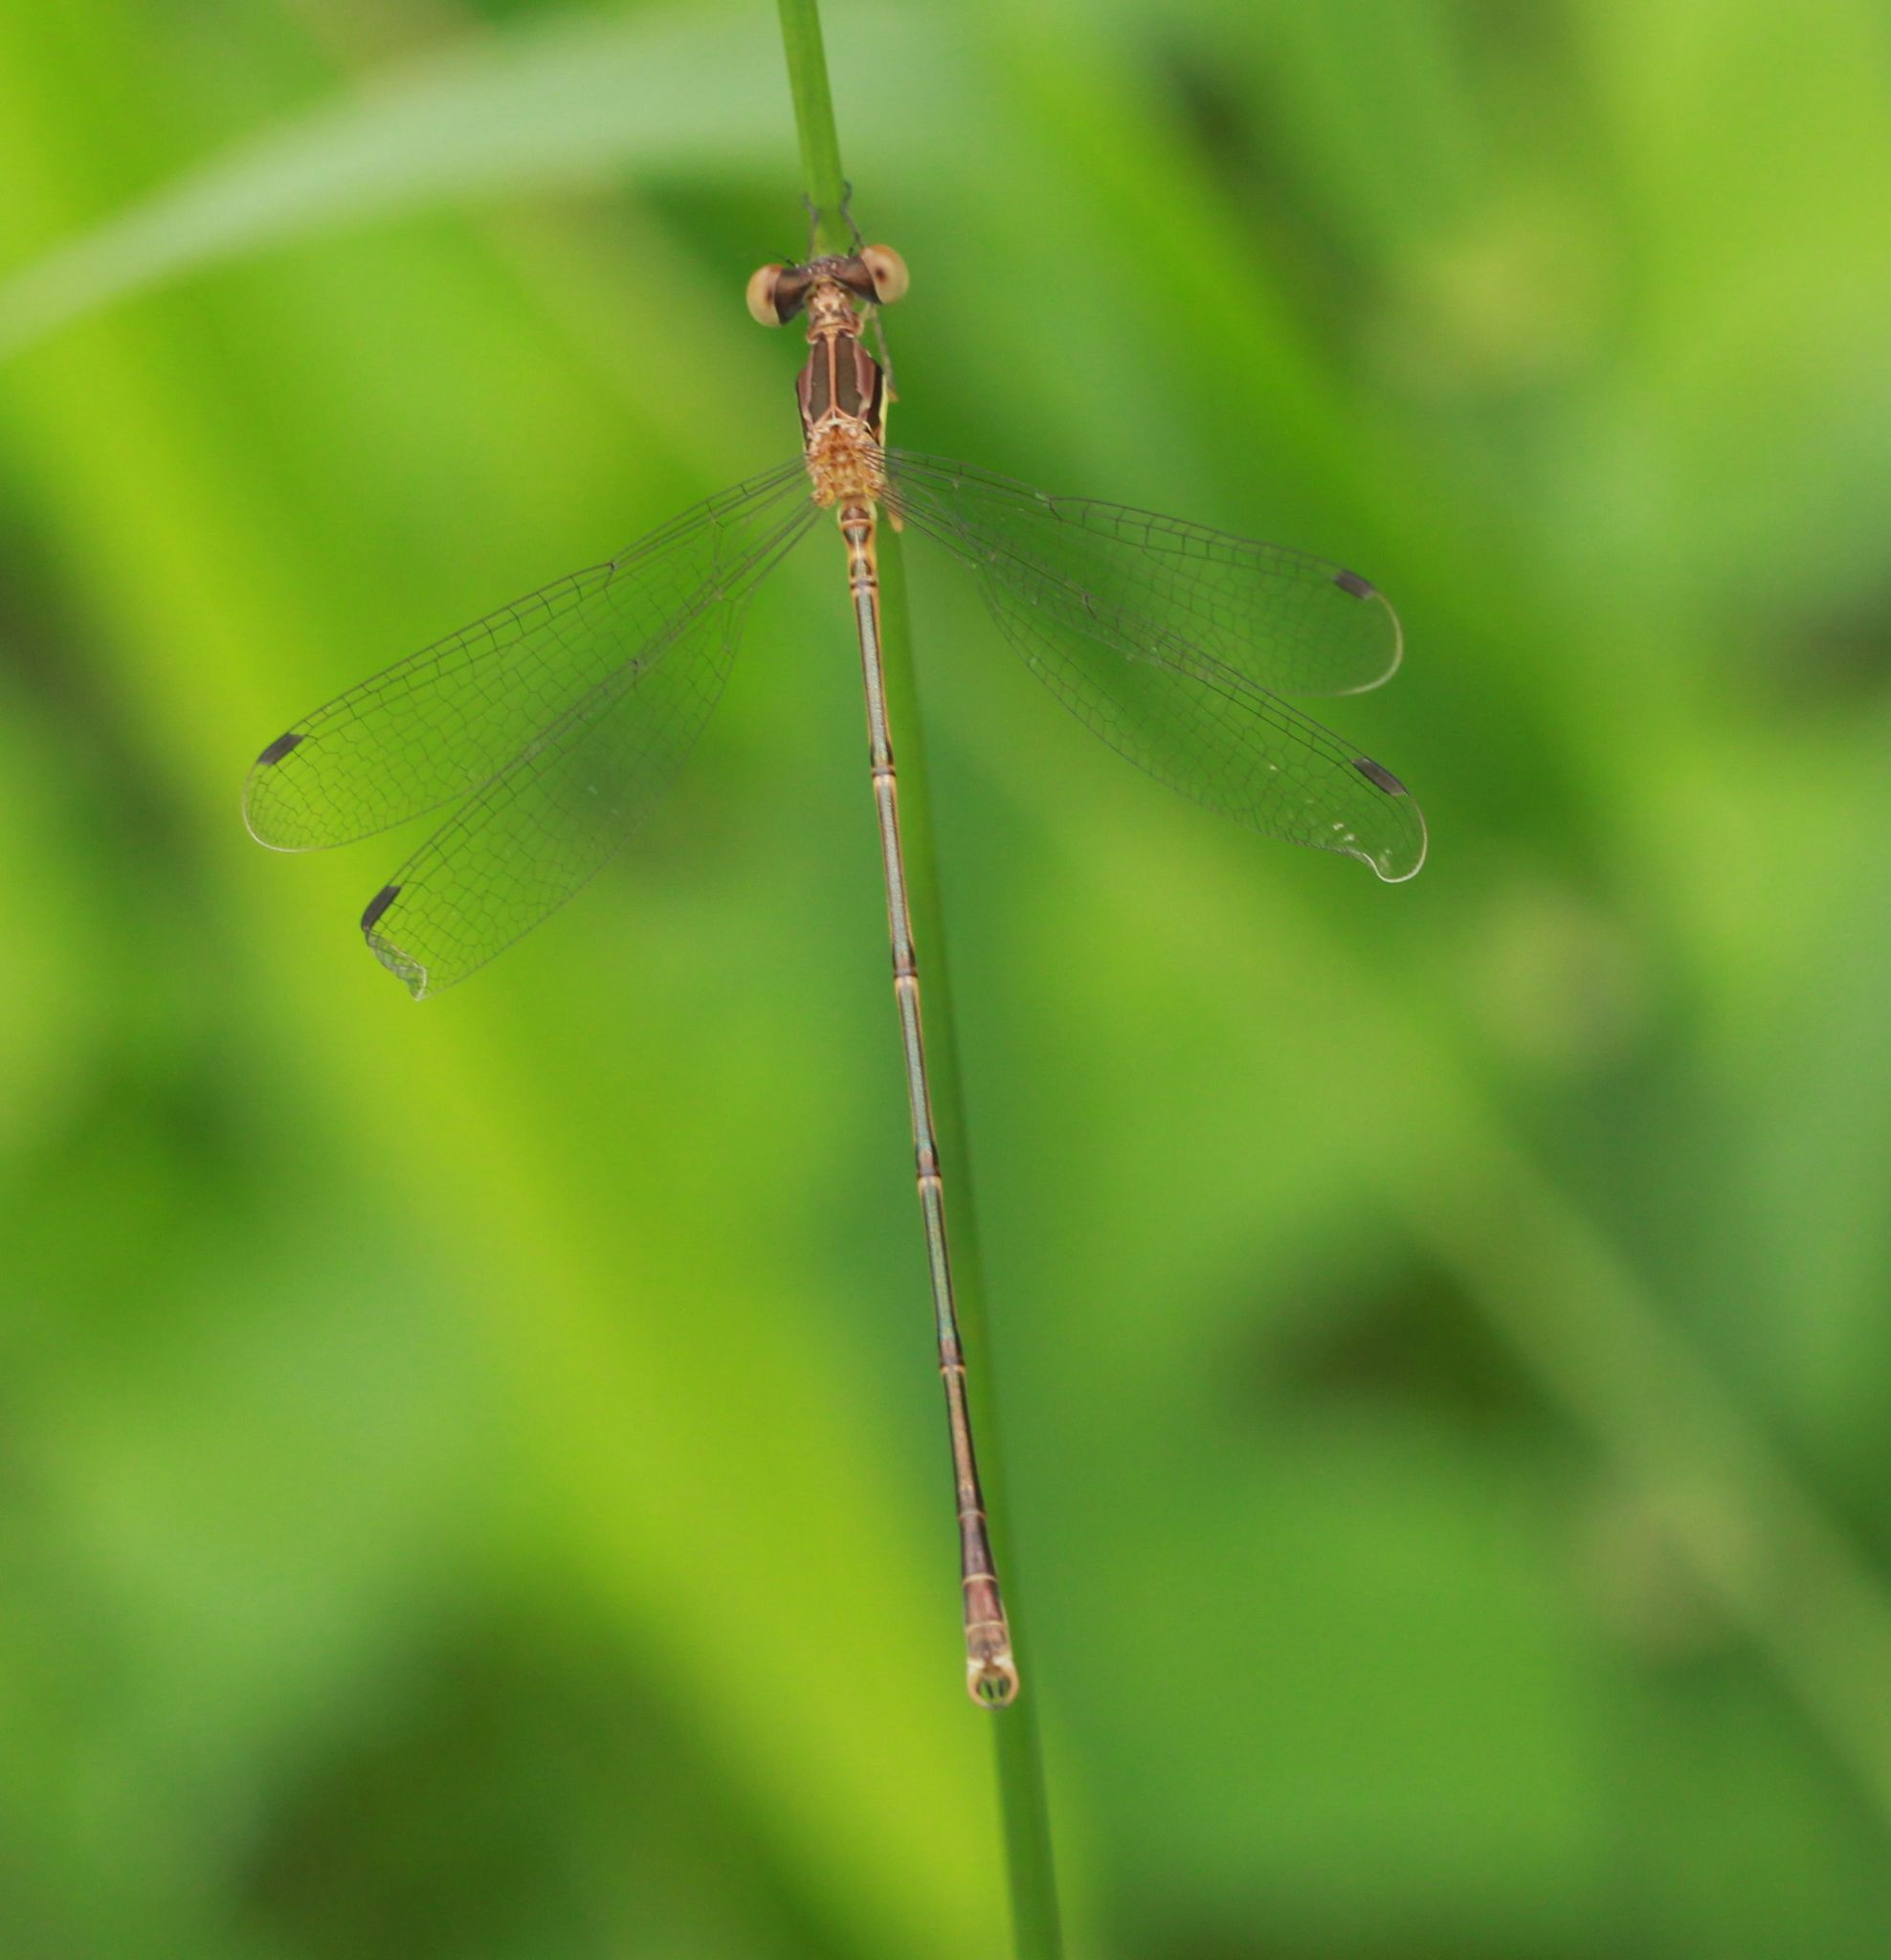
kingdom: Animalia
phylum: Arthropoda
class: Insecta
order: Odonata
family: Lestidae
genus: Lestes
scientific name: Lestes rectangularis
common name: Slender spreadwing
